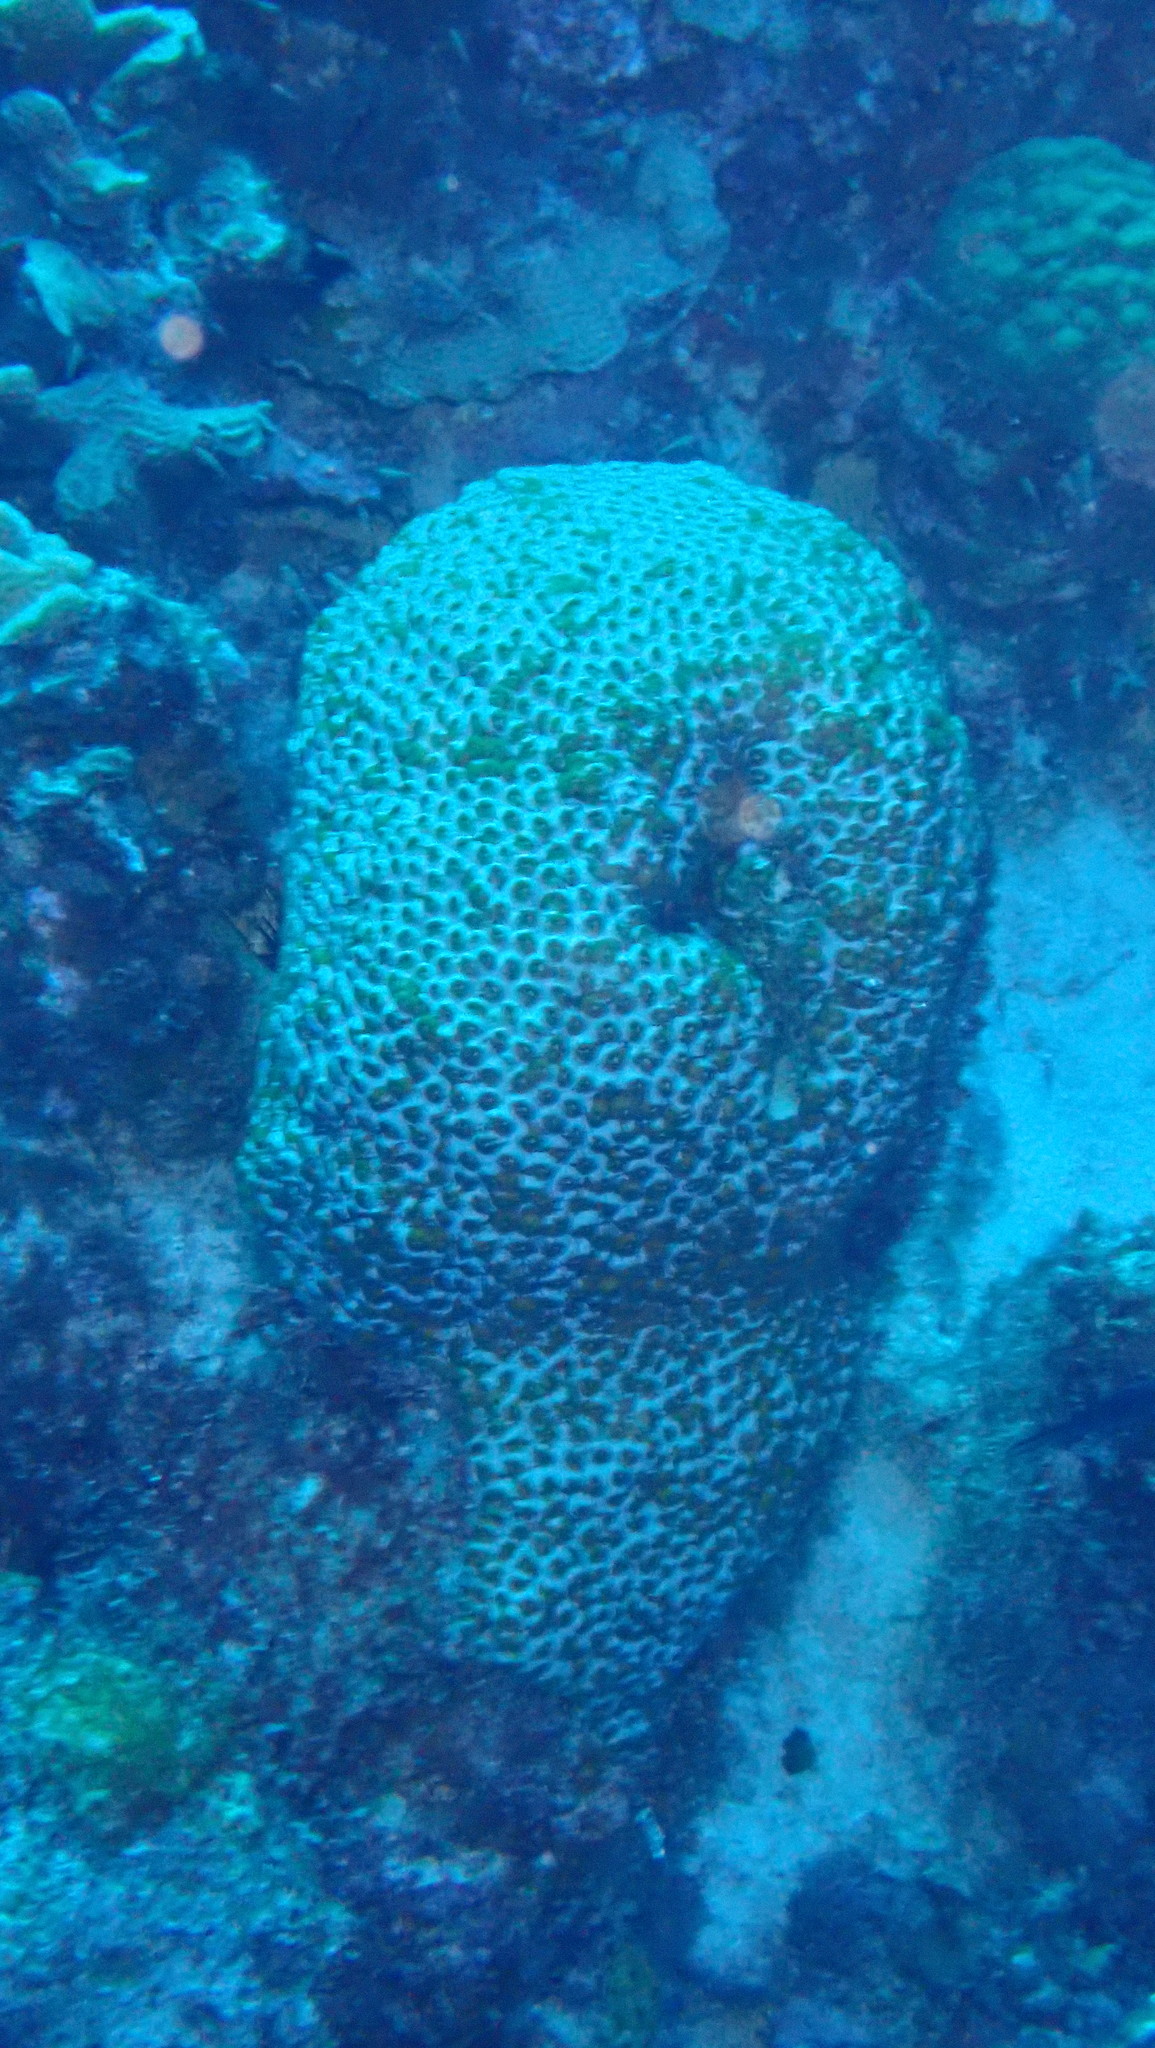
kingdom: Animalia
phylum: Cnidaria
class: Anthozoa
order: Scleractinia
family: Montastraeidae
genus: Montastraea
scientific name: Montastraea cavernosa
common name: Great star coral
